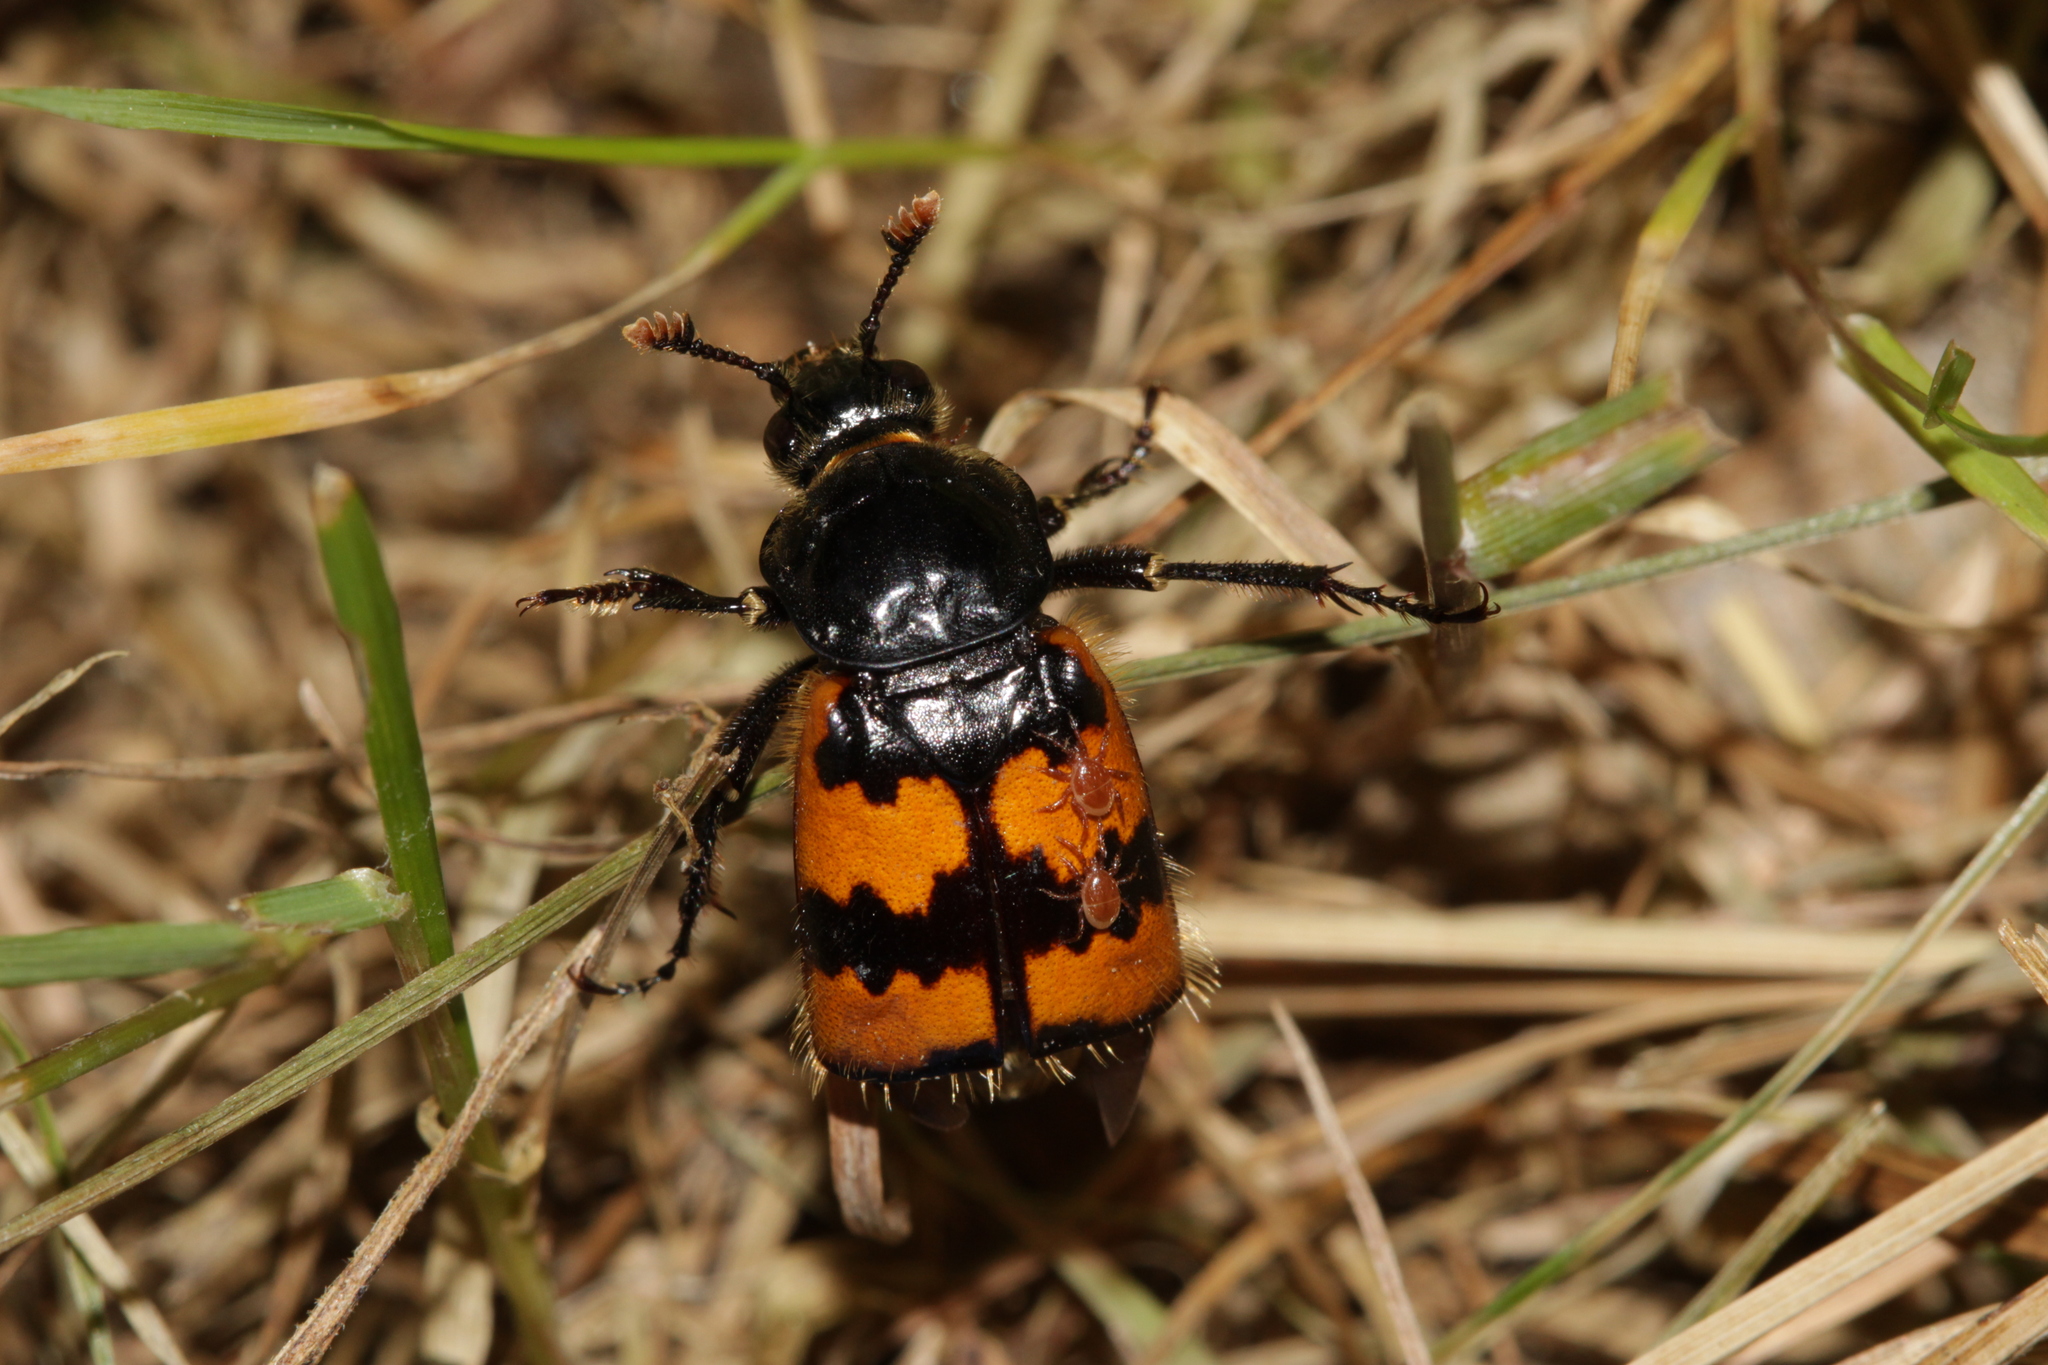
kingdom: Animalia
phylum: Arthropoda
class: Insecta
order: Coleoptera
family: Staphylinidae
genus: Nicrophorus
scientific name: Nicrophorus vespillo
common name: Common burying beetle
